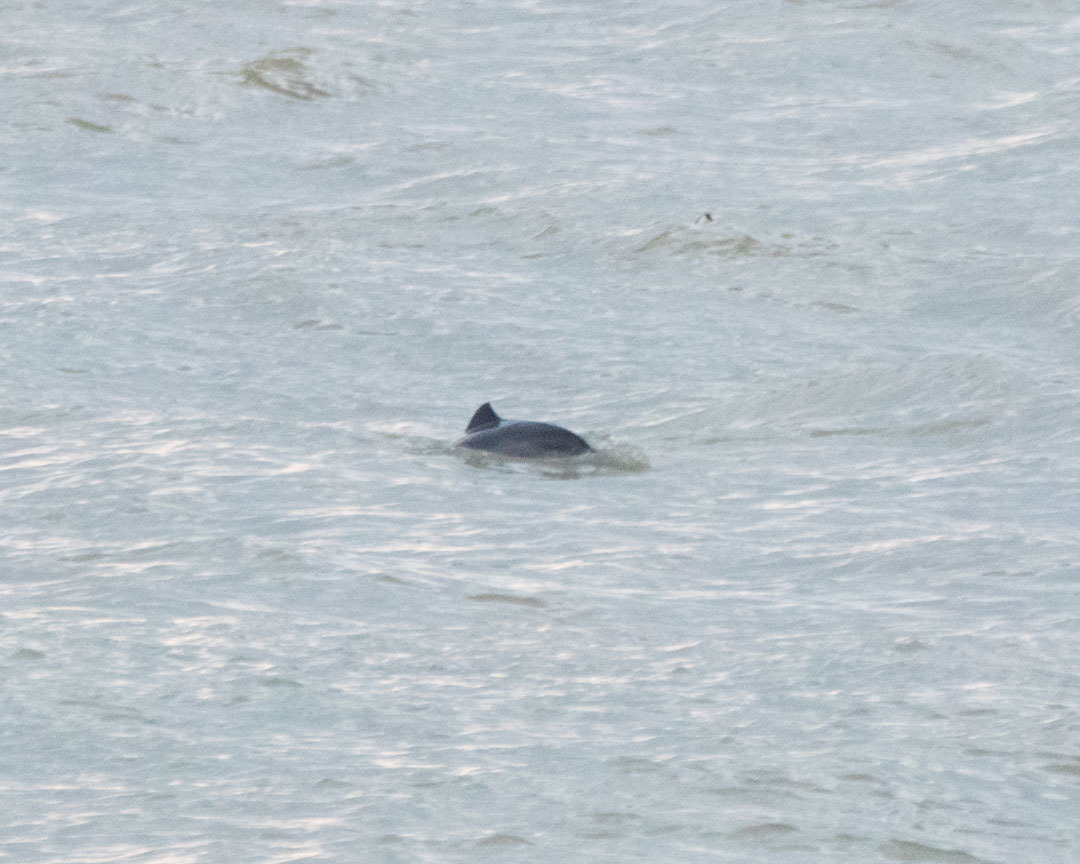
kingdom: Animalia
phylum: Chordata
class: Mammalia
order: Cetacea
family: Phocoenidae
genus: Phocoena
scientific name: Phocoena phocoena
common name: Harbor porpoise
